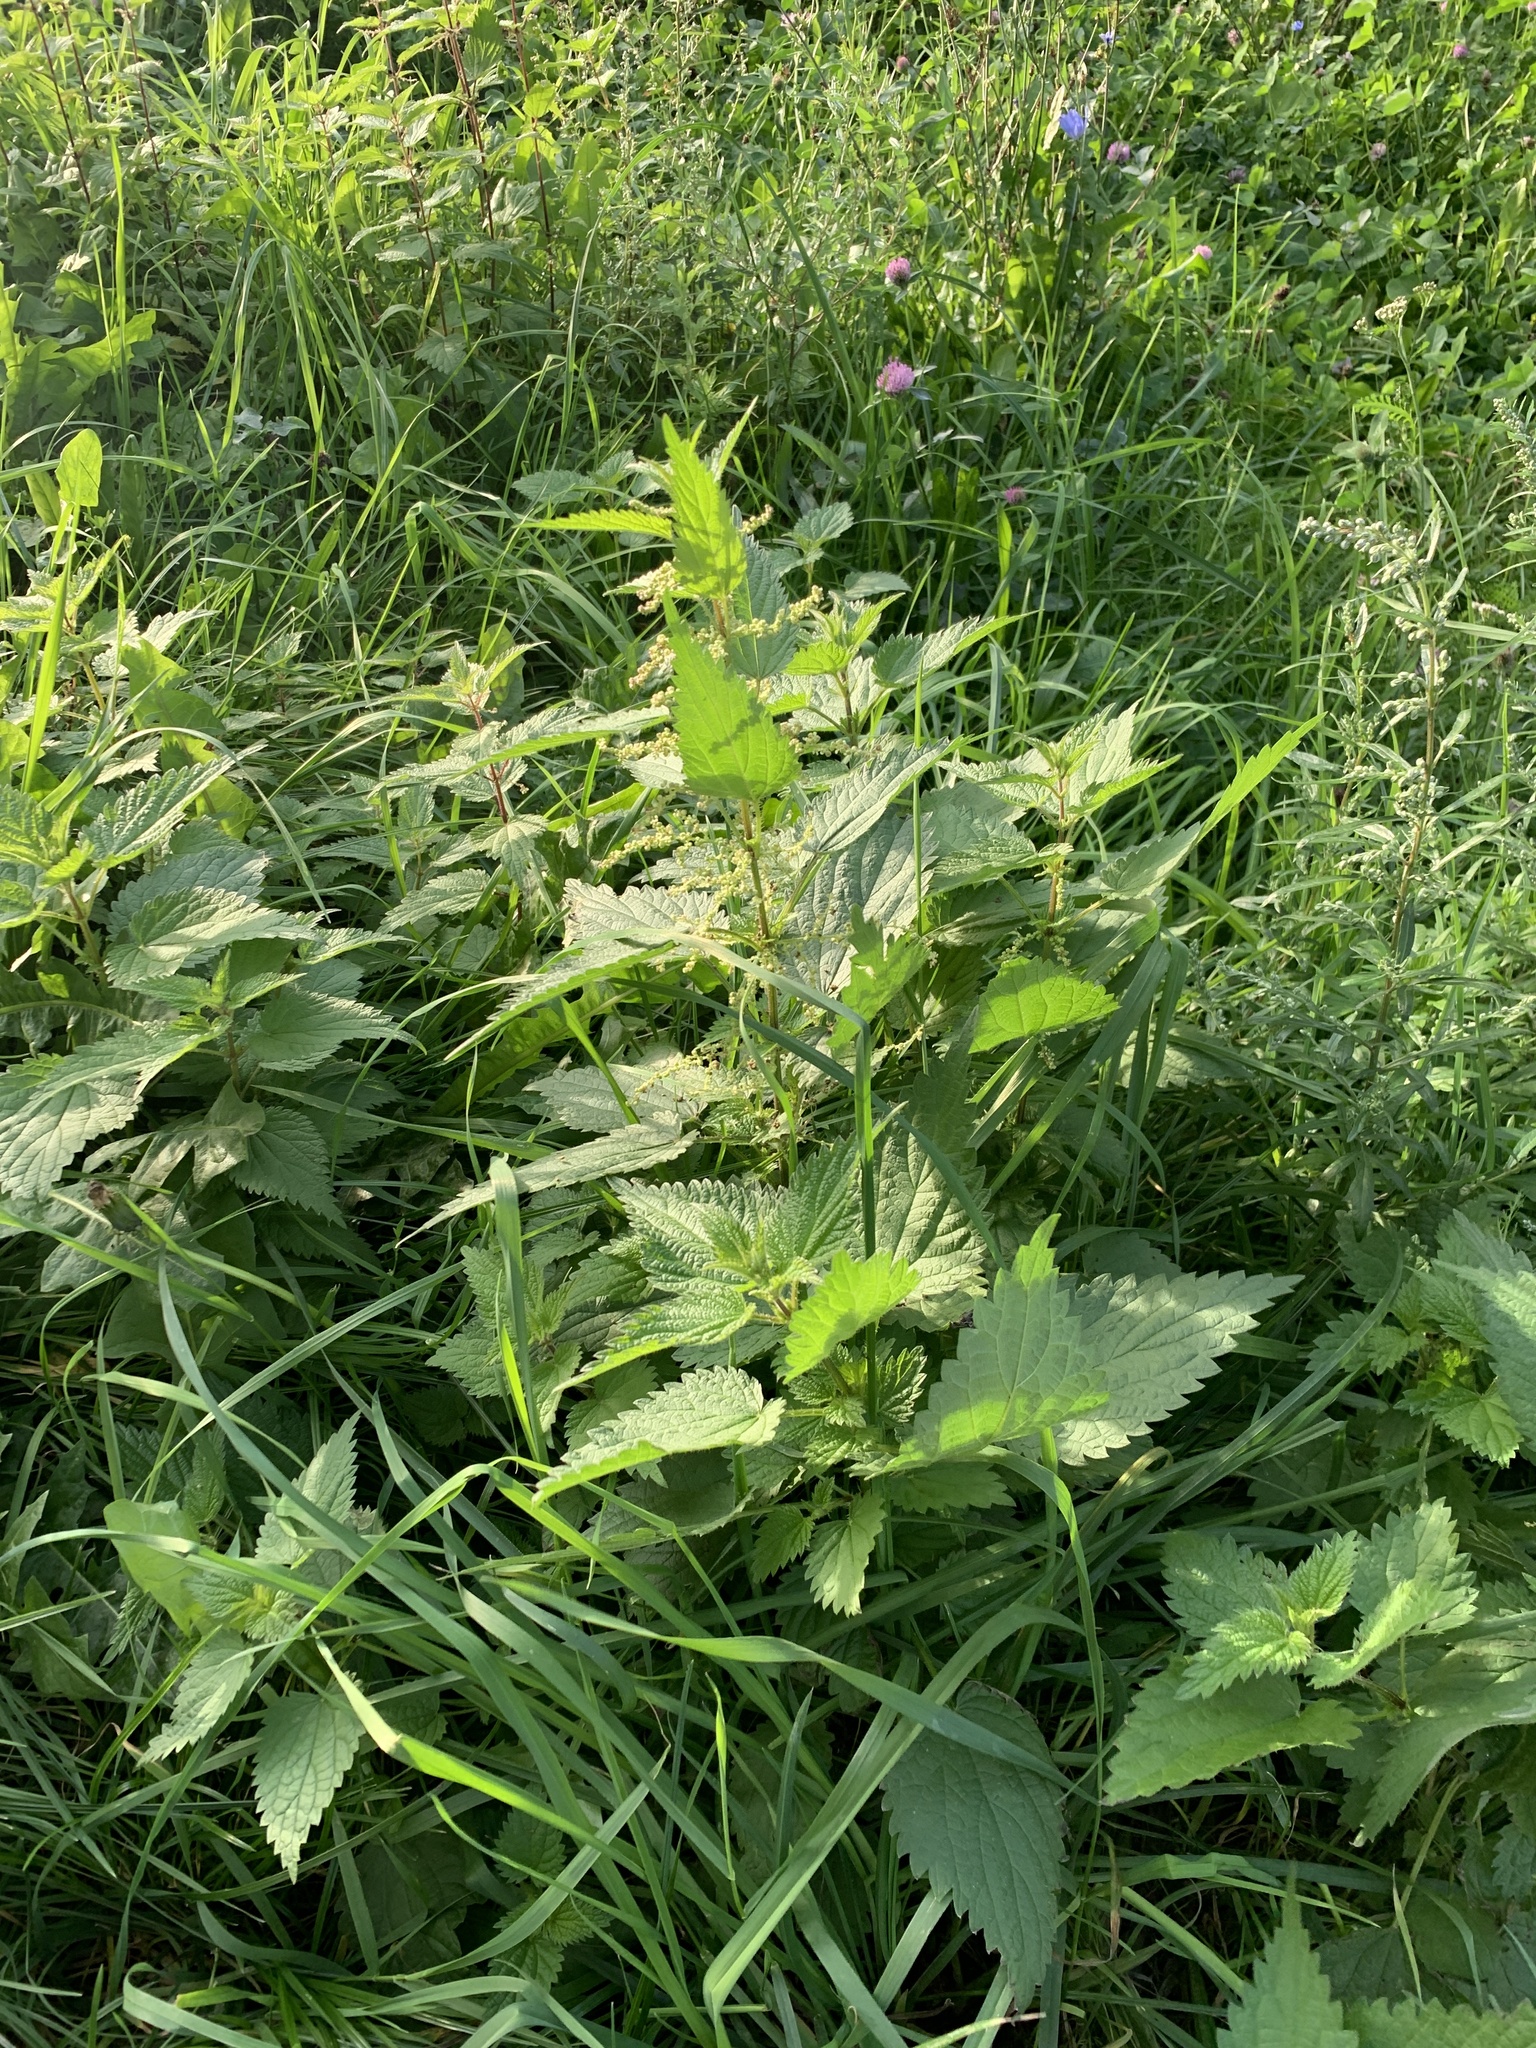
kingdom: Plantae
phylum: Tracheophyta
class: Magnoliopsida
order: Rosales
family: Urticaceae
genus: Urtica
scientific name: Urtica dioica
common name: Common nettle
